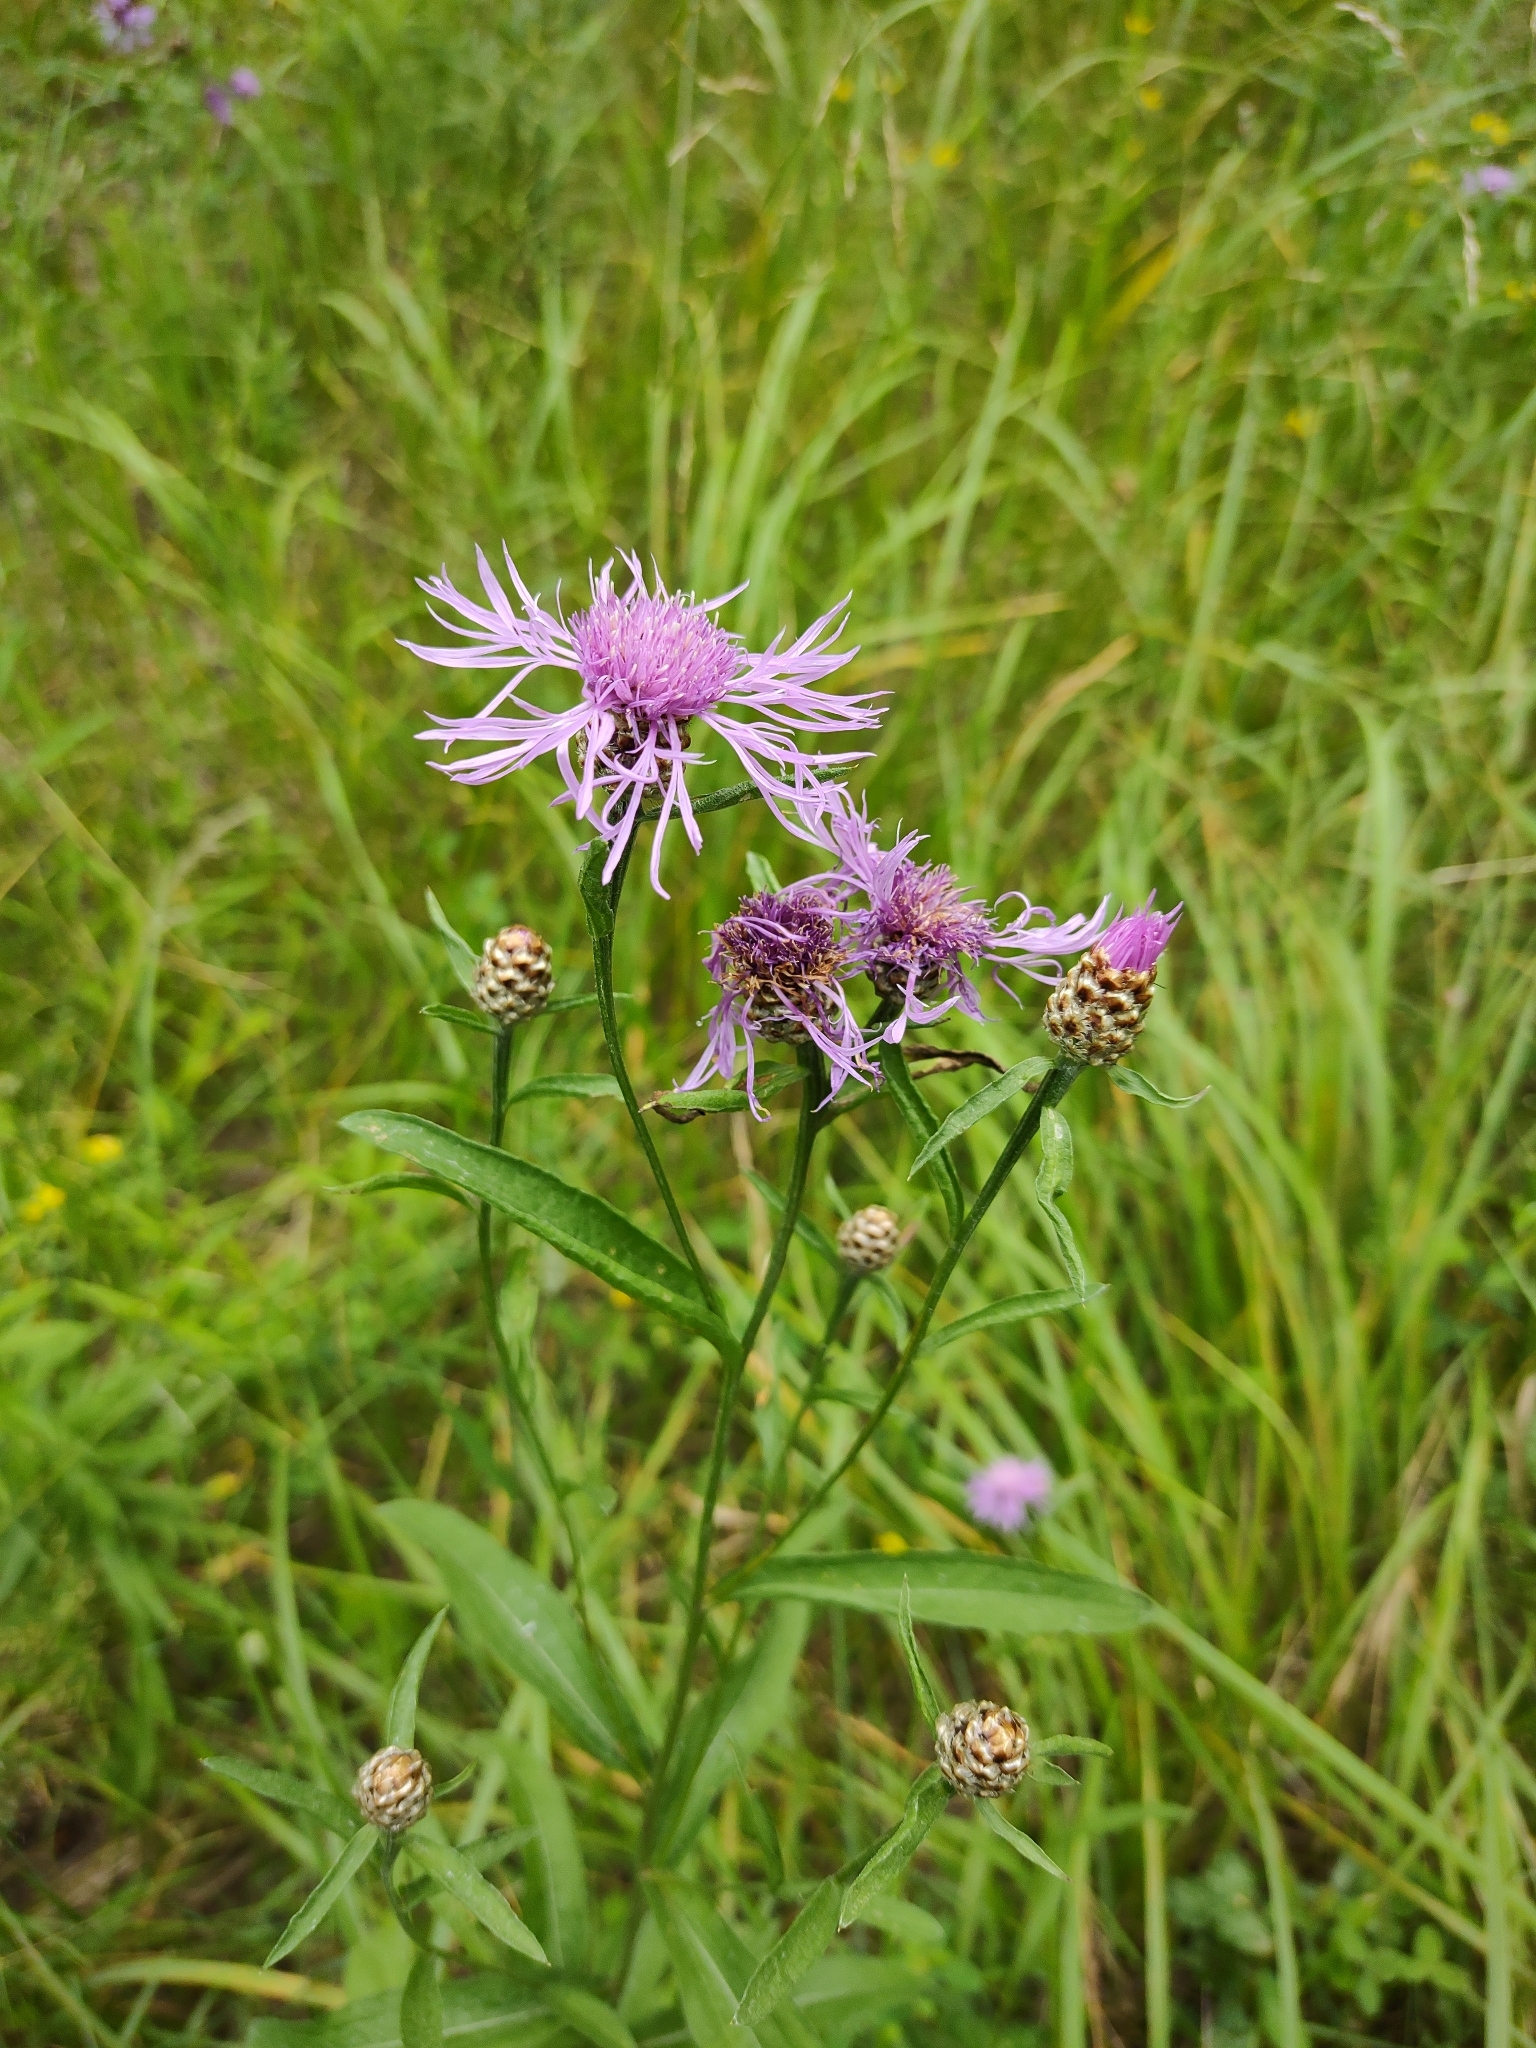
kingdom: Plantae
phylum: Tracheophyta
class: Magnoliopsida
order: Asterales
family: Asteraceae
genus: Centaurea
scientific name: Centaurea jacea
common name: Brown knapweed
